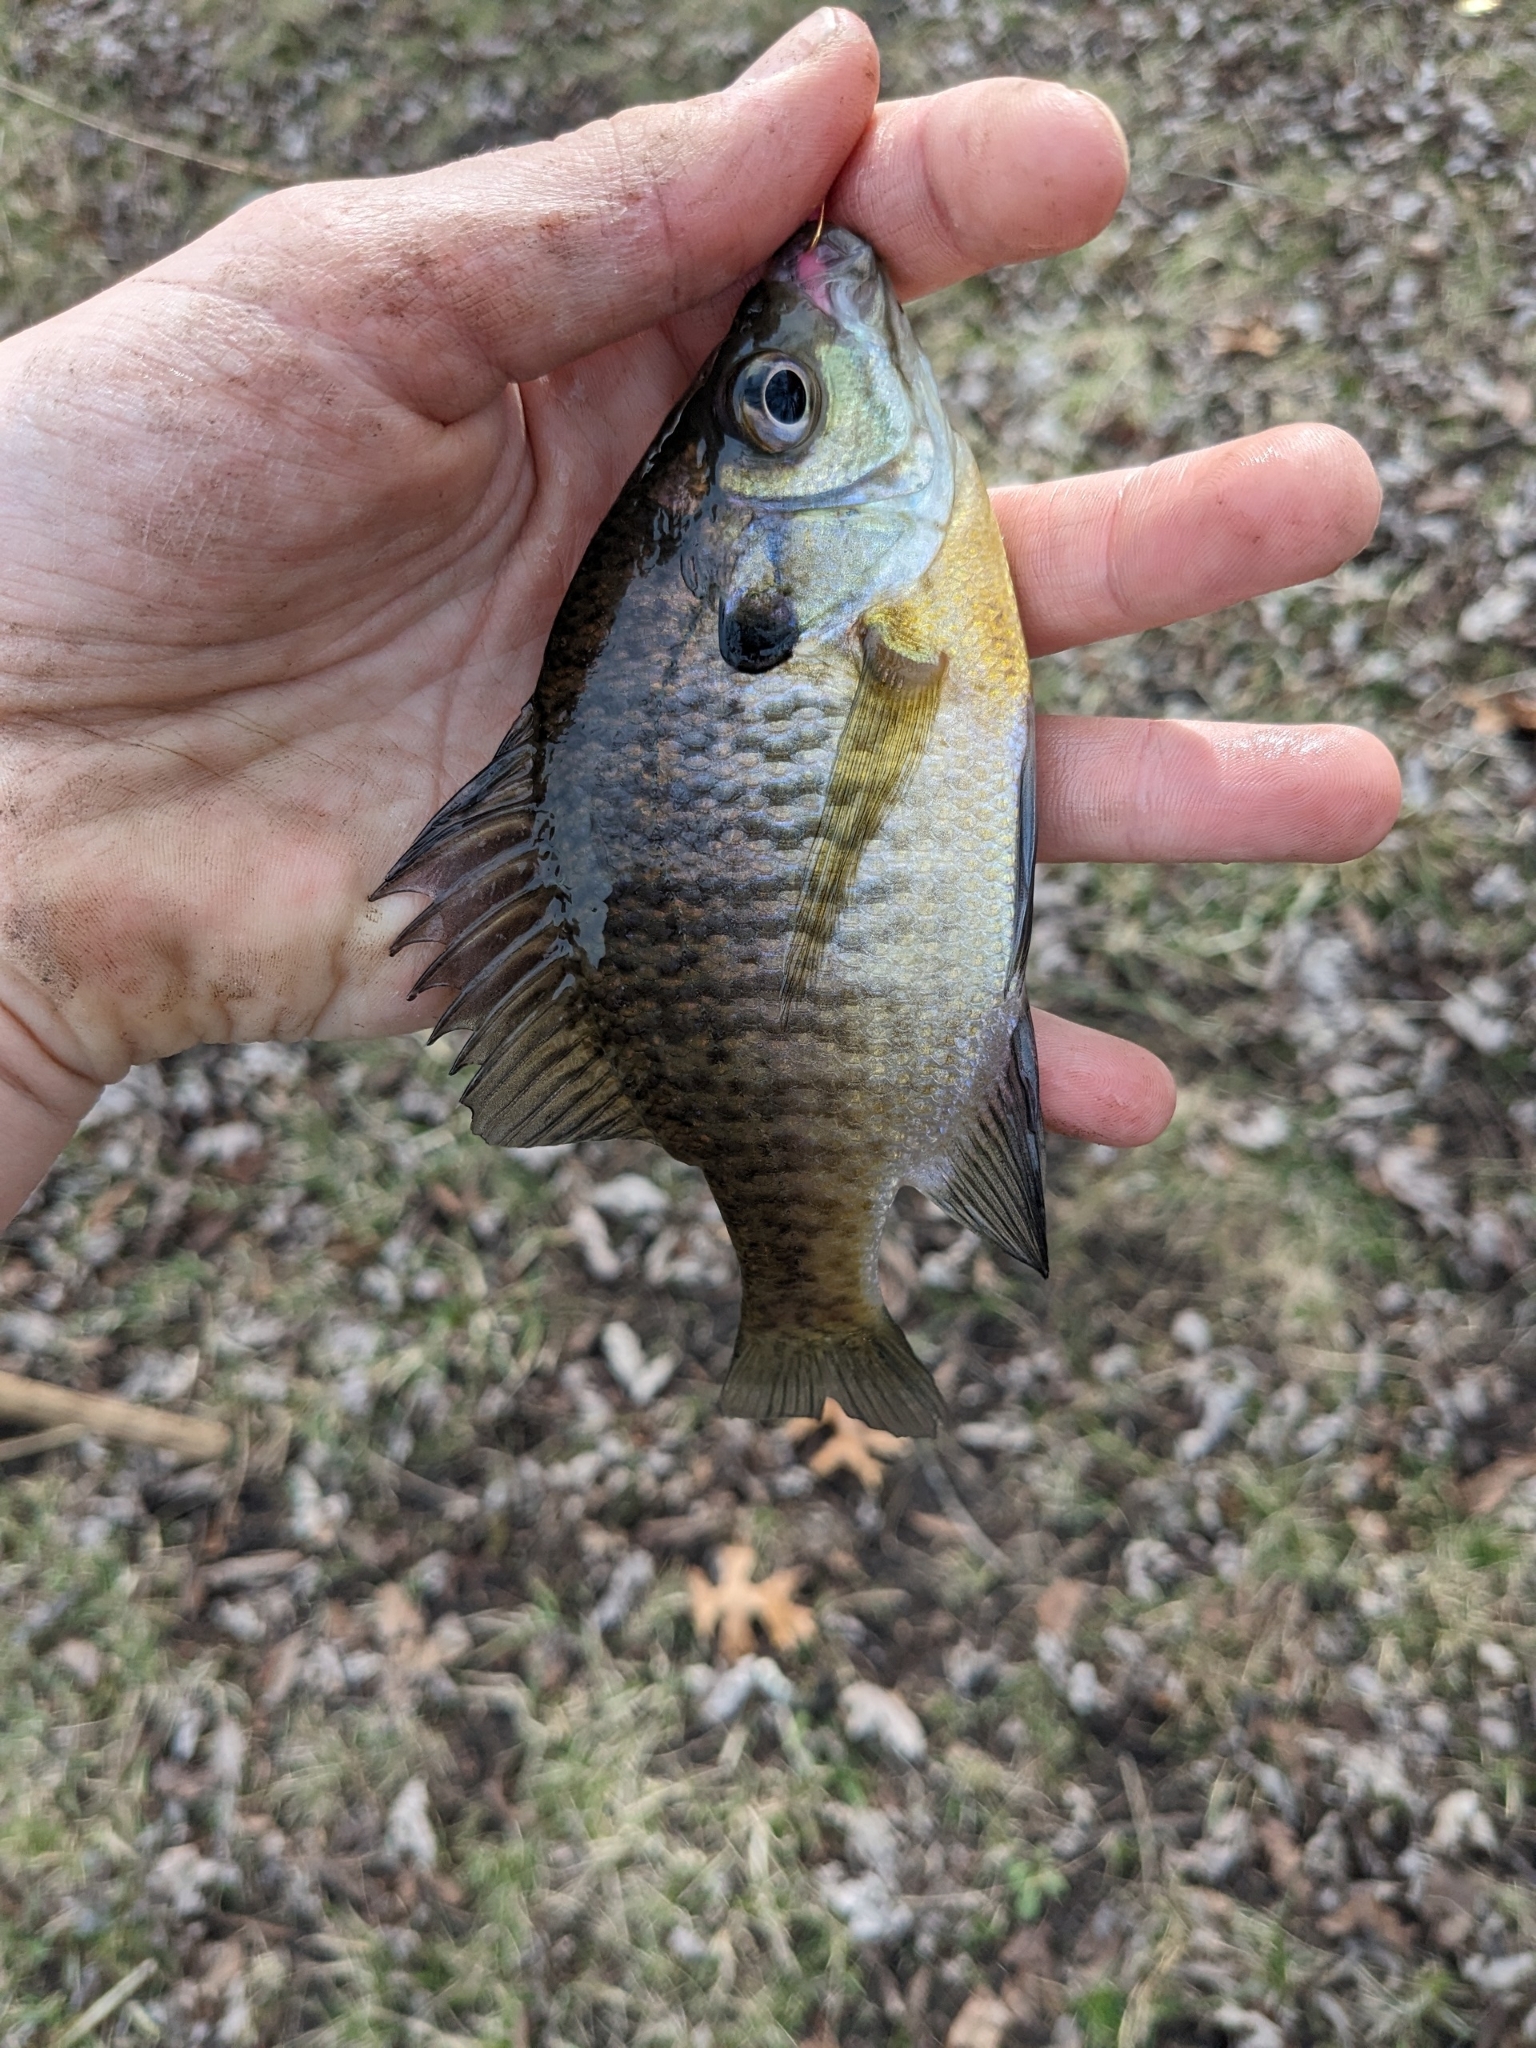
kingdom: Animalia
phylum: Chordata
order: Perciformes
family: Centrarchidae
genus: Lepomis
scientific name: Lepomis macrochirus
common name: Bluegill
